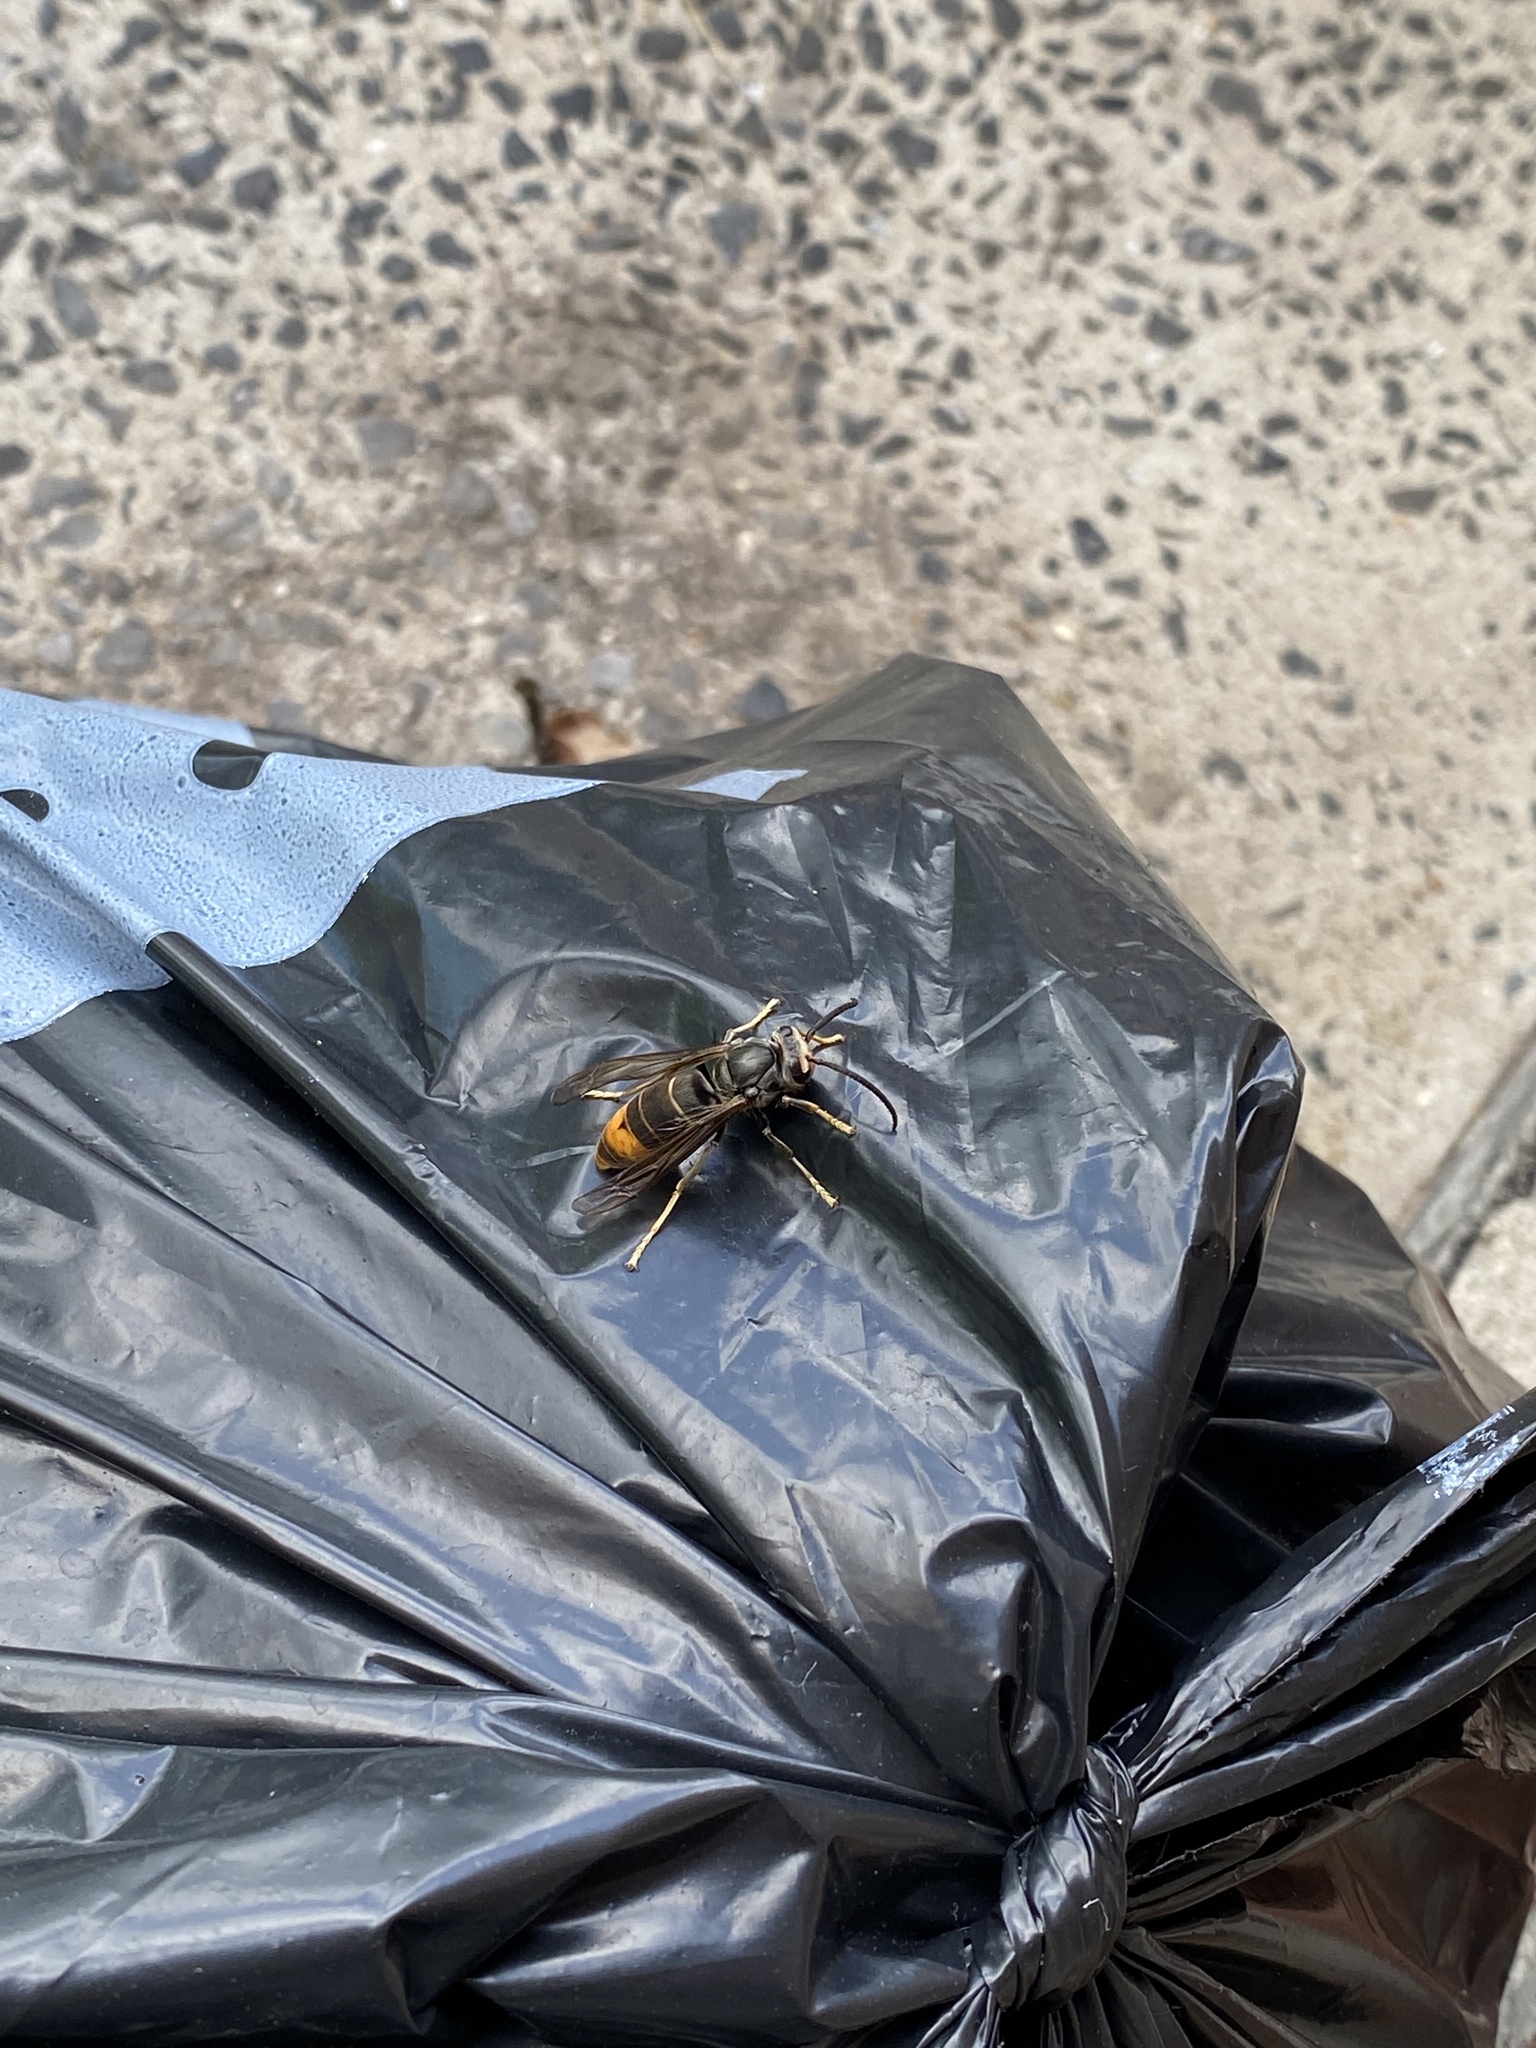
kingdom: Animalia
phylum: Arthropoda
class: Insecta
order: Hymenoptera
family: Vespidae
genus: Vespa
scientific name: Vespa velutina
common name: Asian hornet
